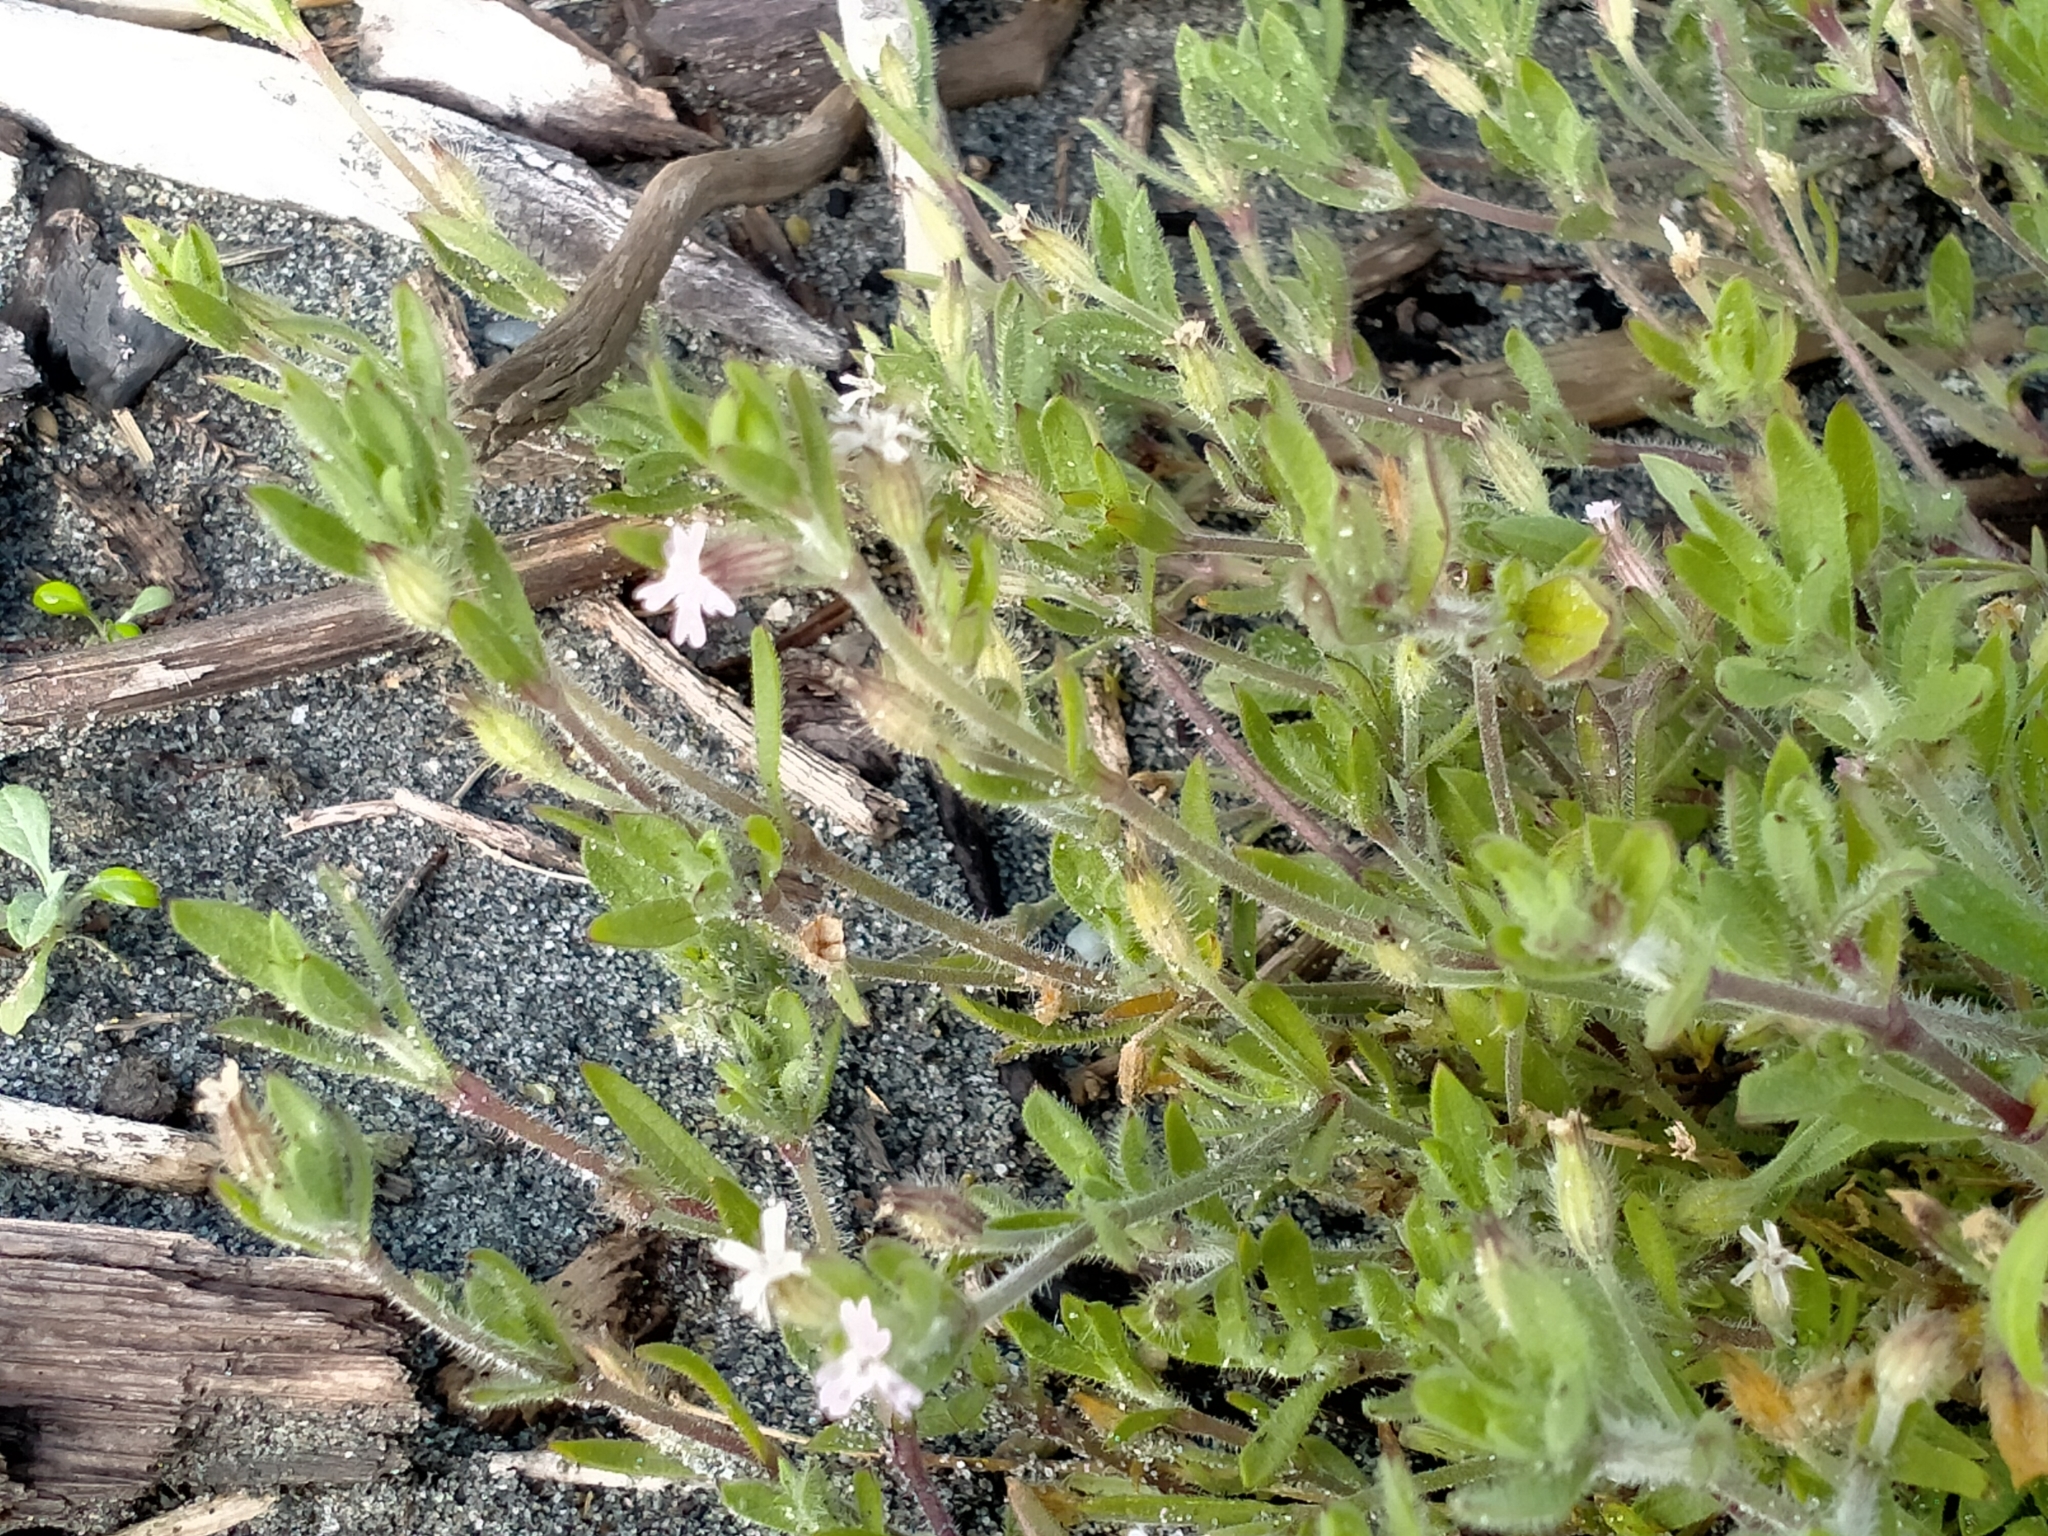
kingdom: Plantae
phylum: Tracheophyta
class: Magnoliopsida
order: Caryophyllales
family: Caryophyllaceae
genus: Silene
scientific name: Silene gallica
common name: Small-flowered catchfly
